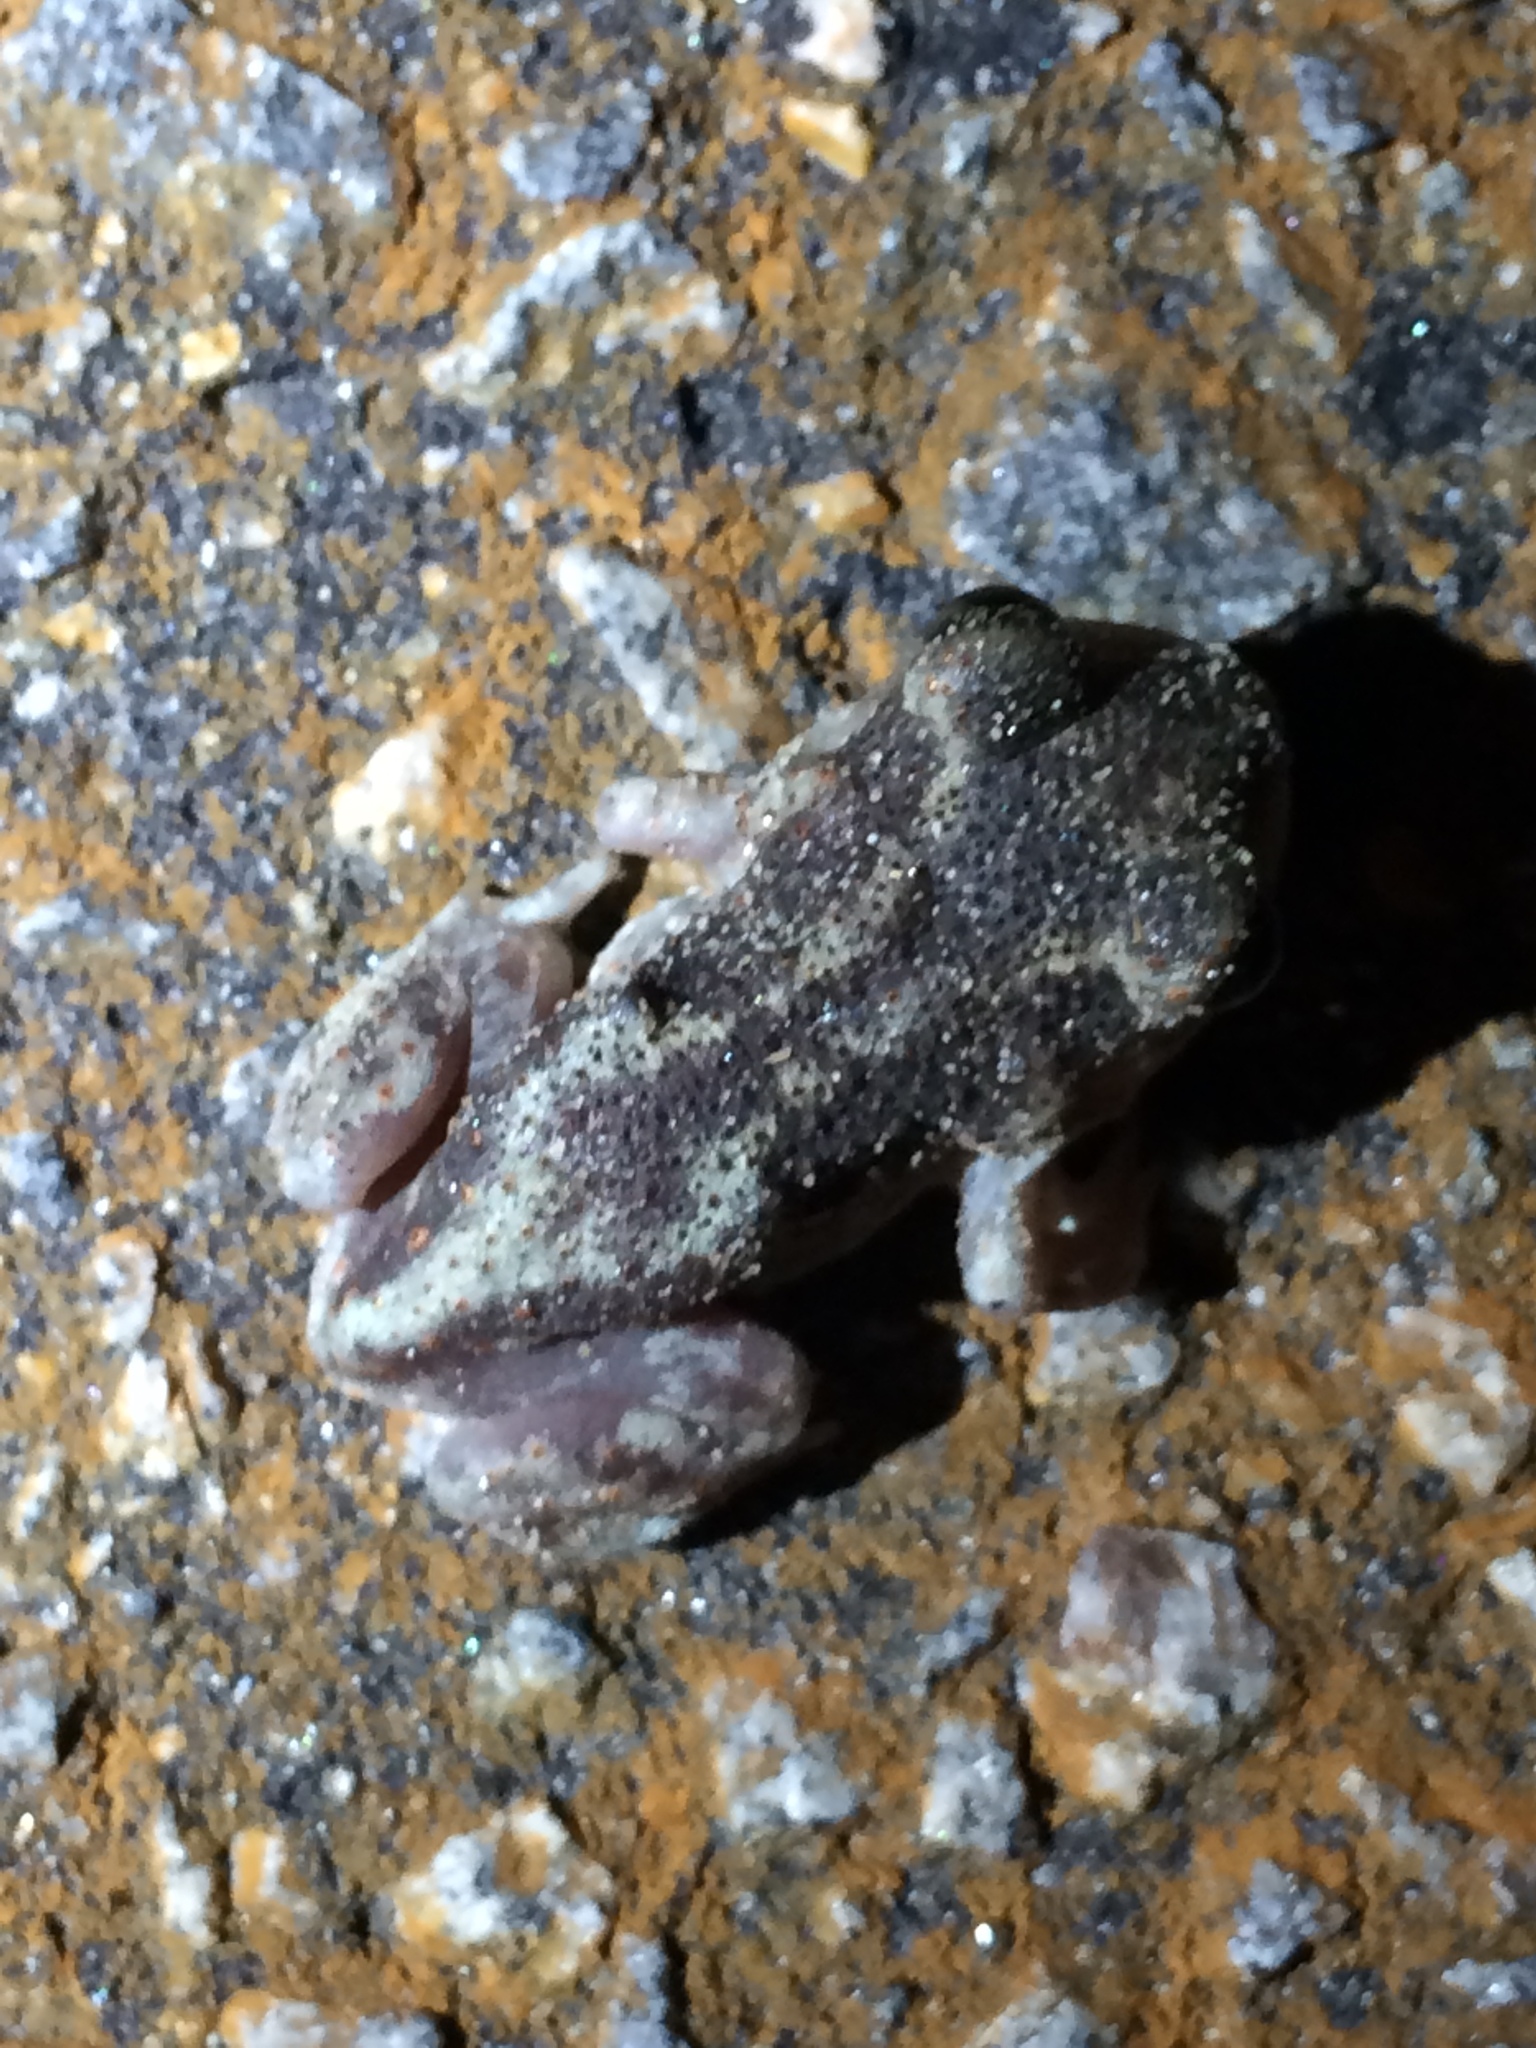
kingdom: Animalia
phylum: Chordata
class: Amphibia
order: Anura
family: Scaphiopodidae
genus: Scaphiopus
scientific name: Scaphiopus holbrookii
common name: Eastern spadefoot toad
